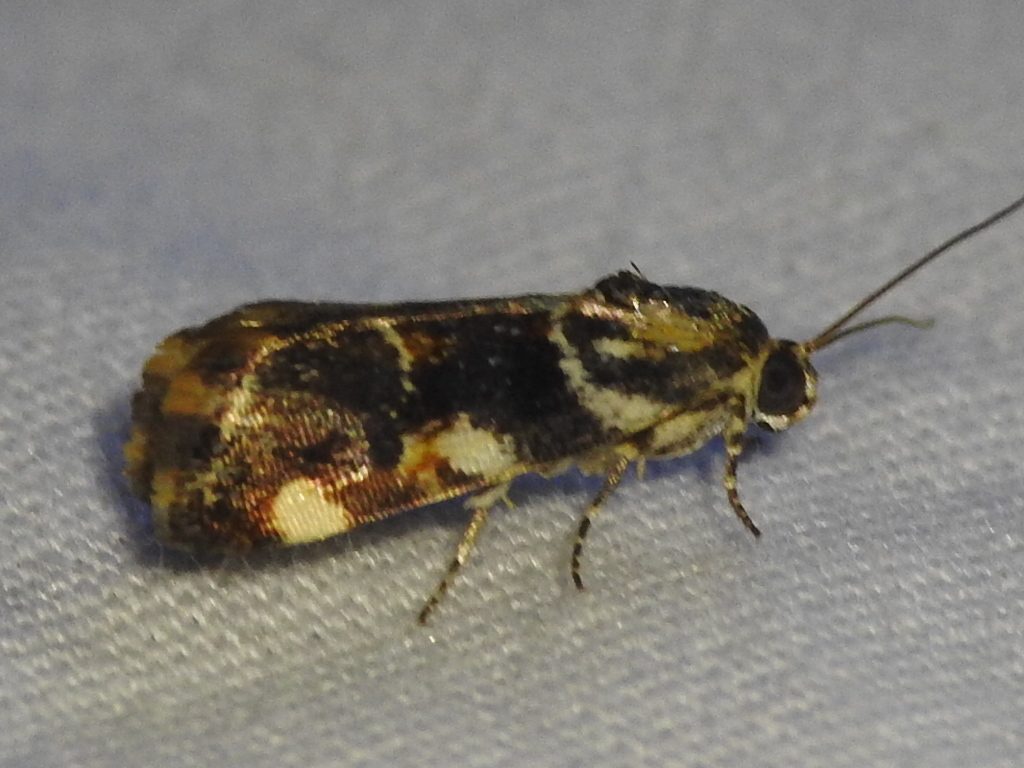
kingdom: Animalia
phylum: Arthropoda
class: Insecta
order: Lepidoptera
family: Noctuidae
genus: Spragueia
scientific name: Spragueia jaguaralis
